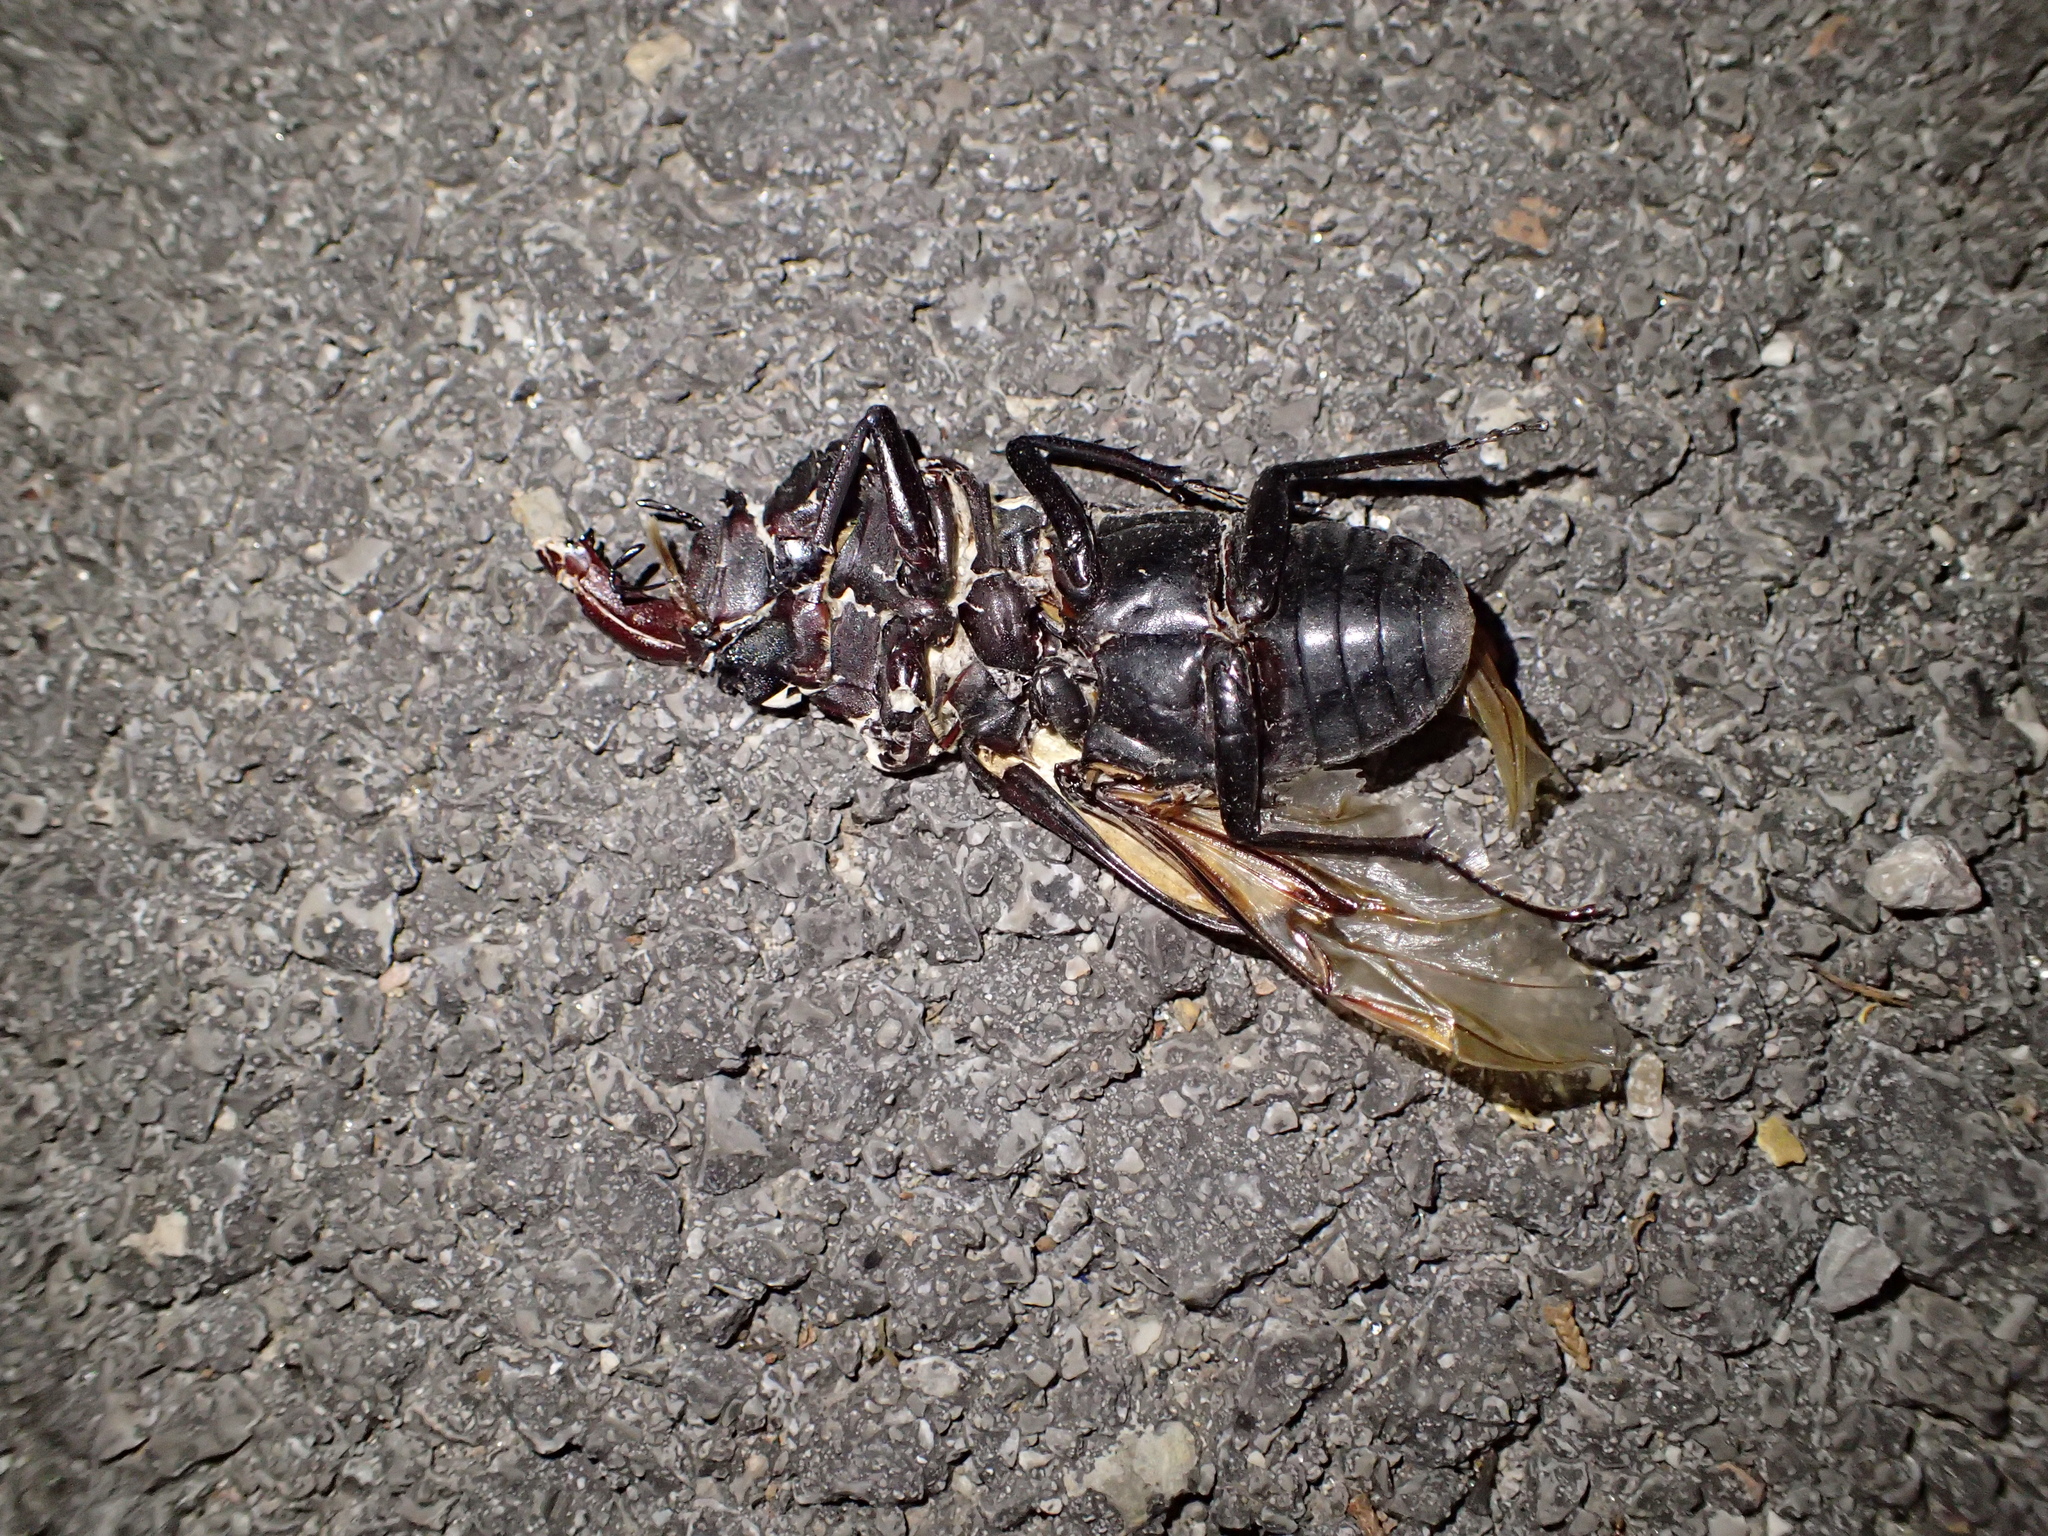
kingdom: Animalia
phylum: Arthropoda
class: Insecta
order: Coleoptera
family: Lucanidae
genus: Lucanus
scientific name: Lucanus cervus
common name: Stag beetle
